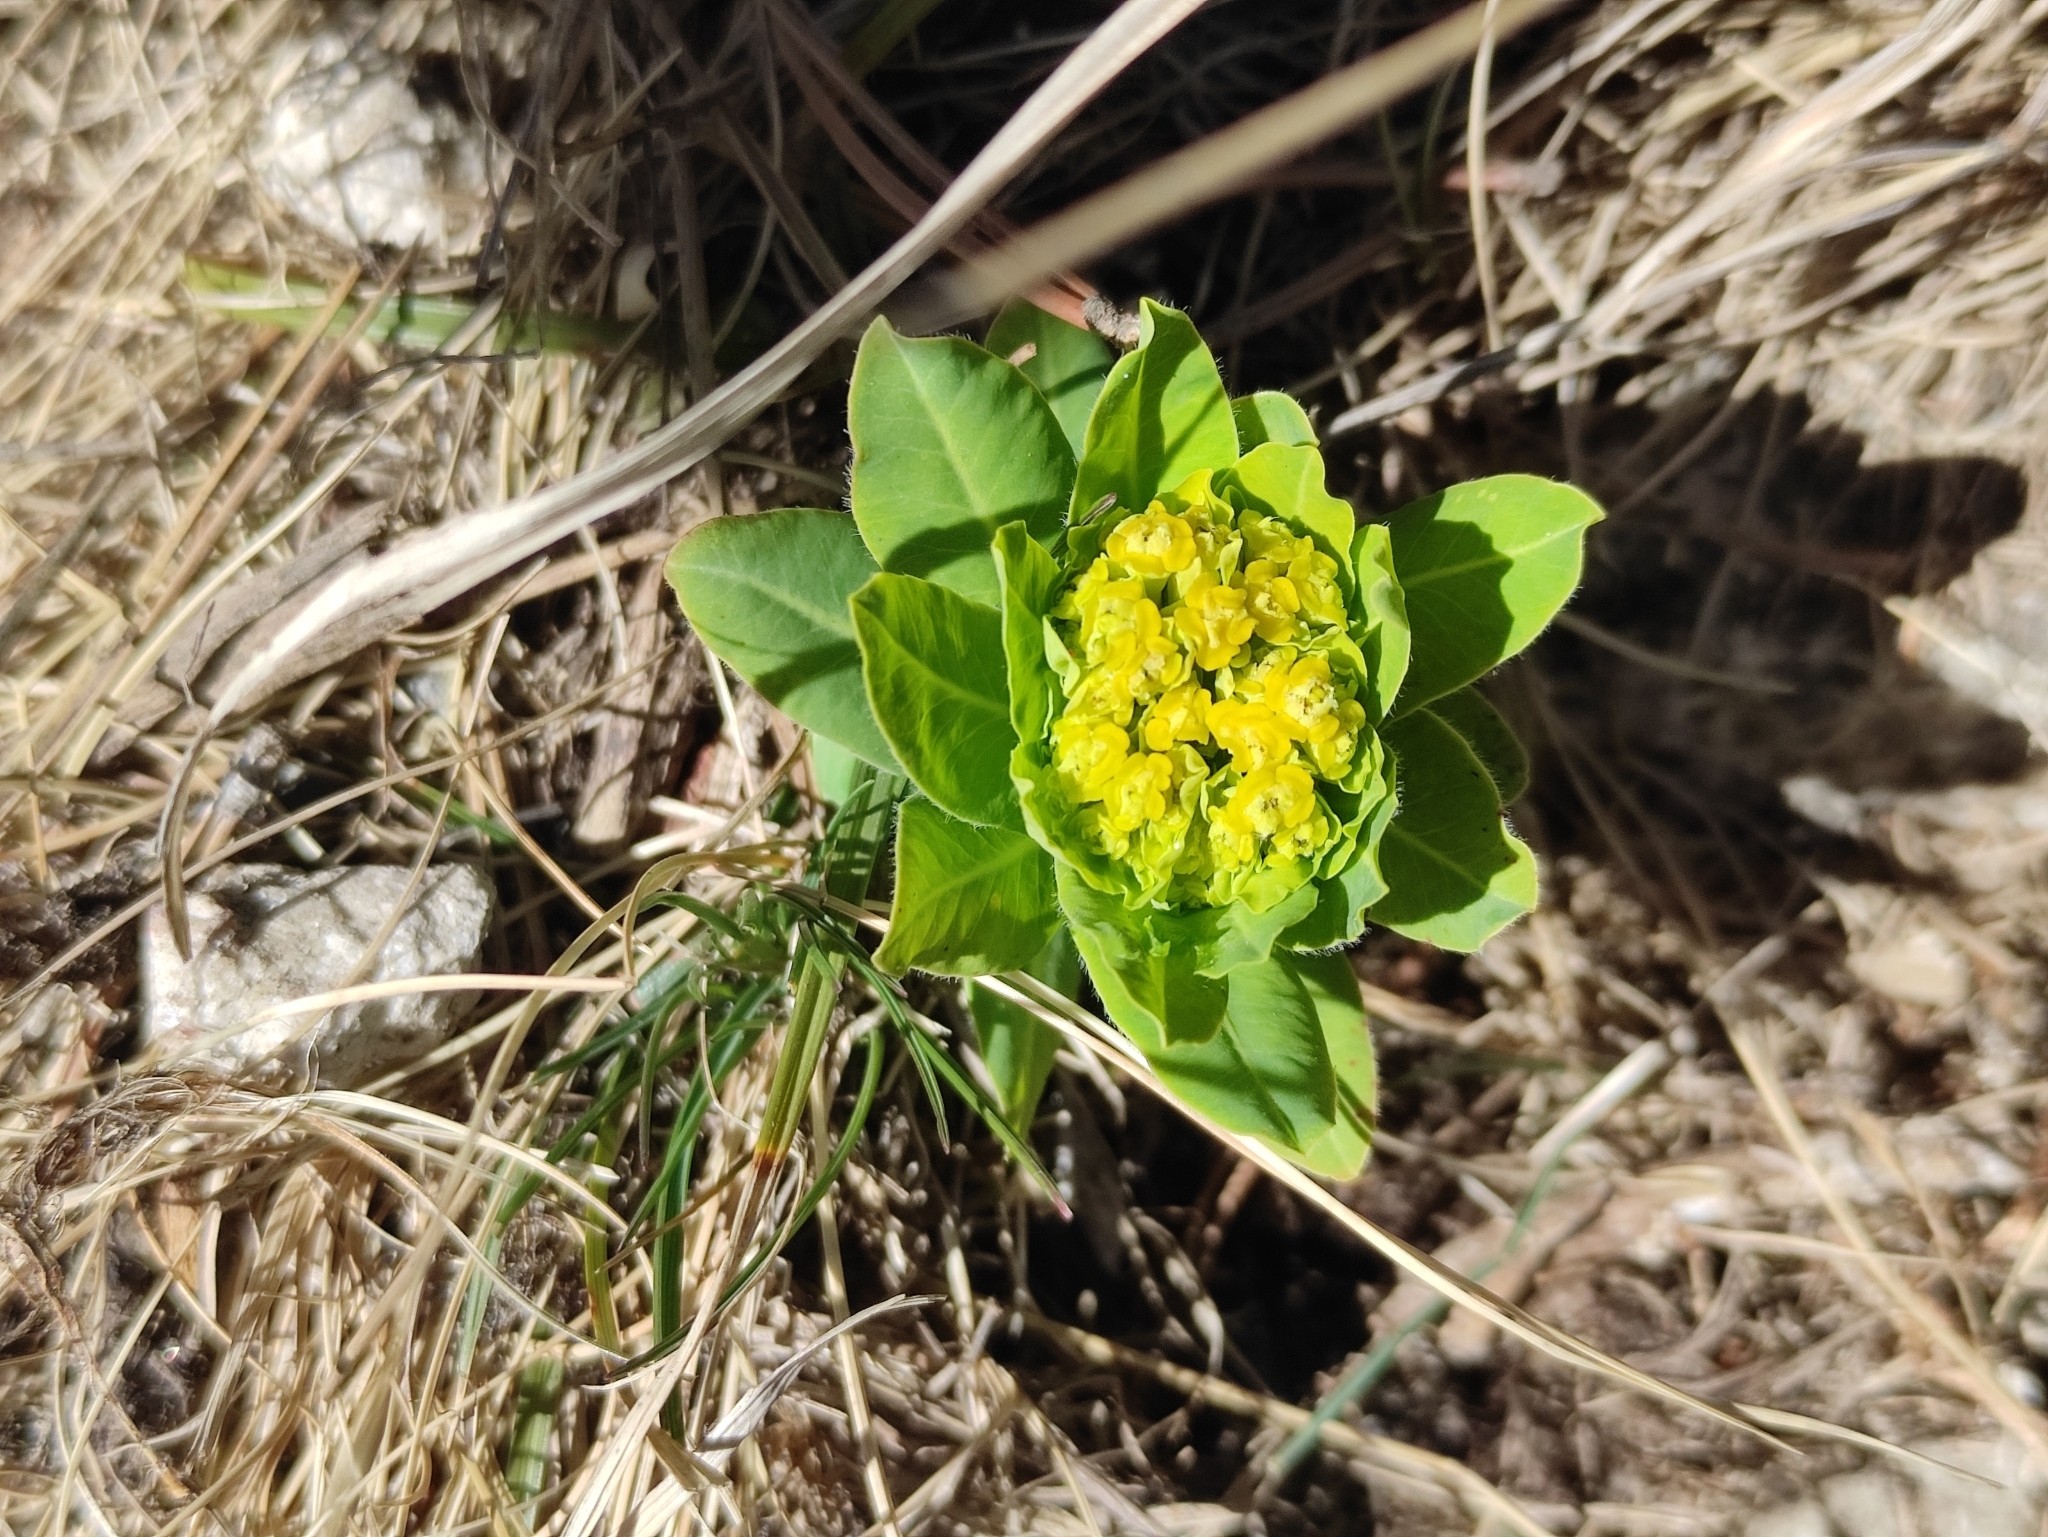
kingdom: Plantae
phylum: Tracheophyta
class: Magnoliopsida
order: Malpighiales
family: Euphorbiaceae
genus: Euphorbia
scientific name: Euphorbia hyberna
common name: Irish spurge
